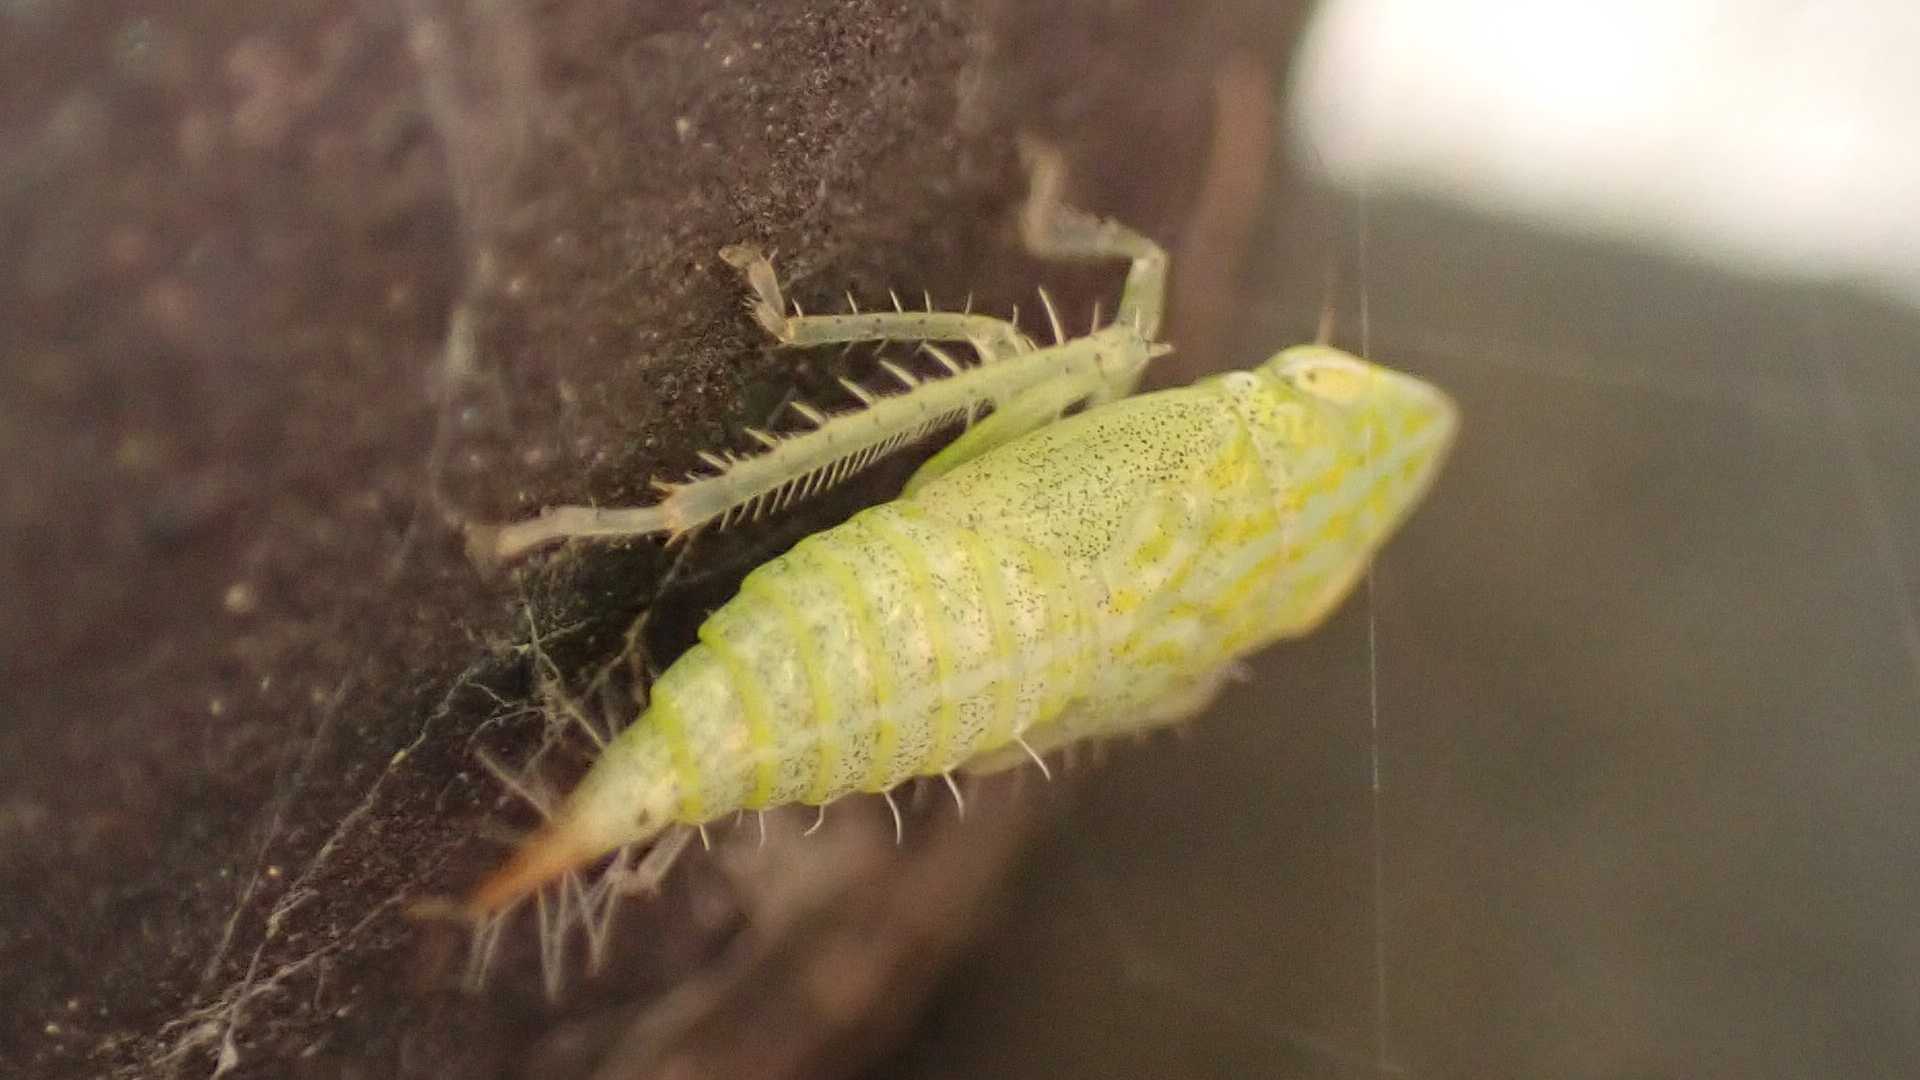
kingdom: Animalia
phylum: Arthropoda
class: Insecta
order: Hemiptera
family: Cicadellidae
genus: Fieberiella
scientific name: Fieberiella
